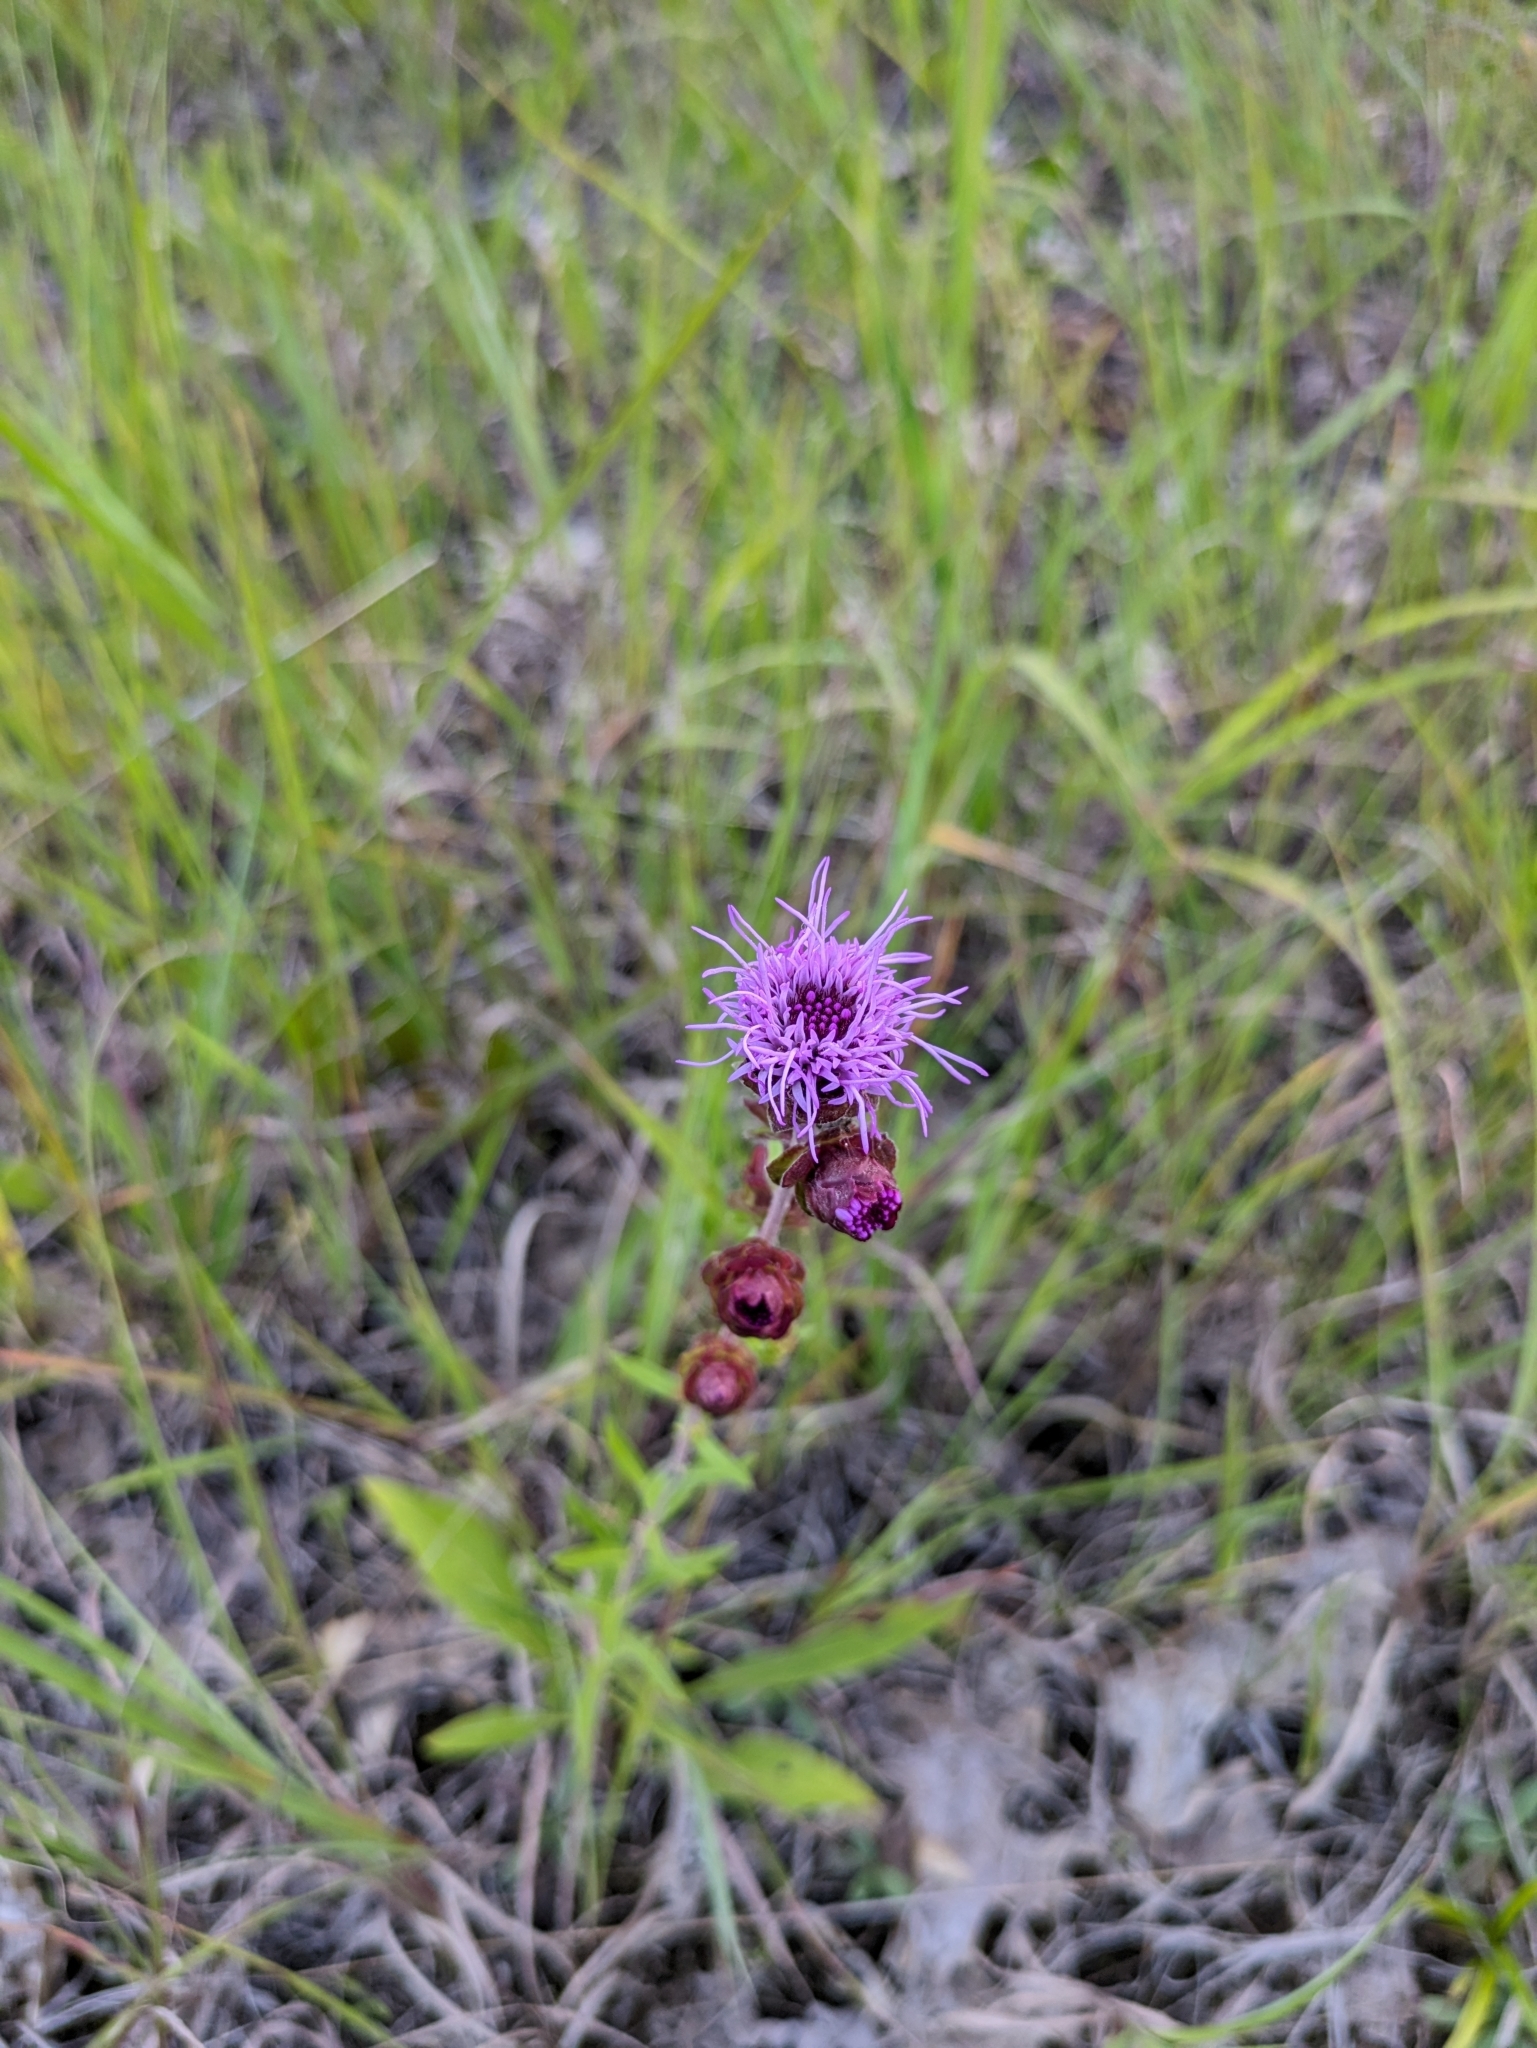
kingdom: Plantae
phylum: Tracheophyta
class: Magnoliopsida
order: Asterales
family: Asteraceae
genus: Liatris
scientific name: Liatris scariosa
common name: Northern gayfeather
